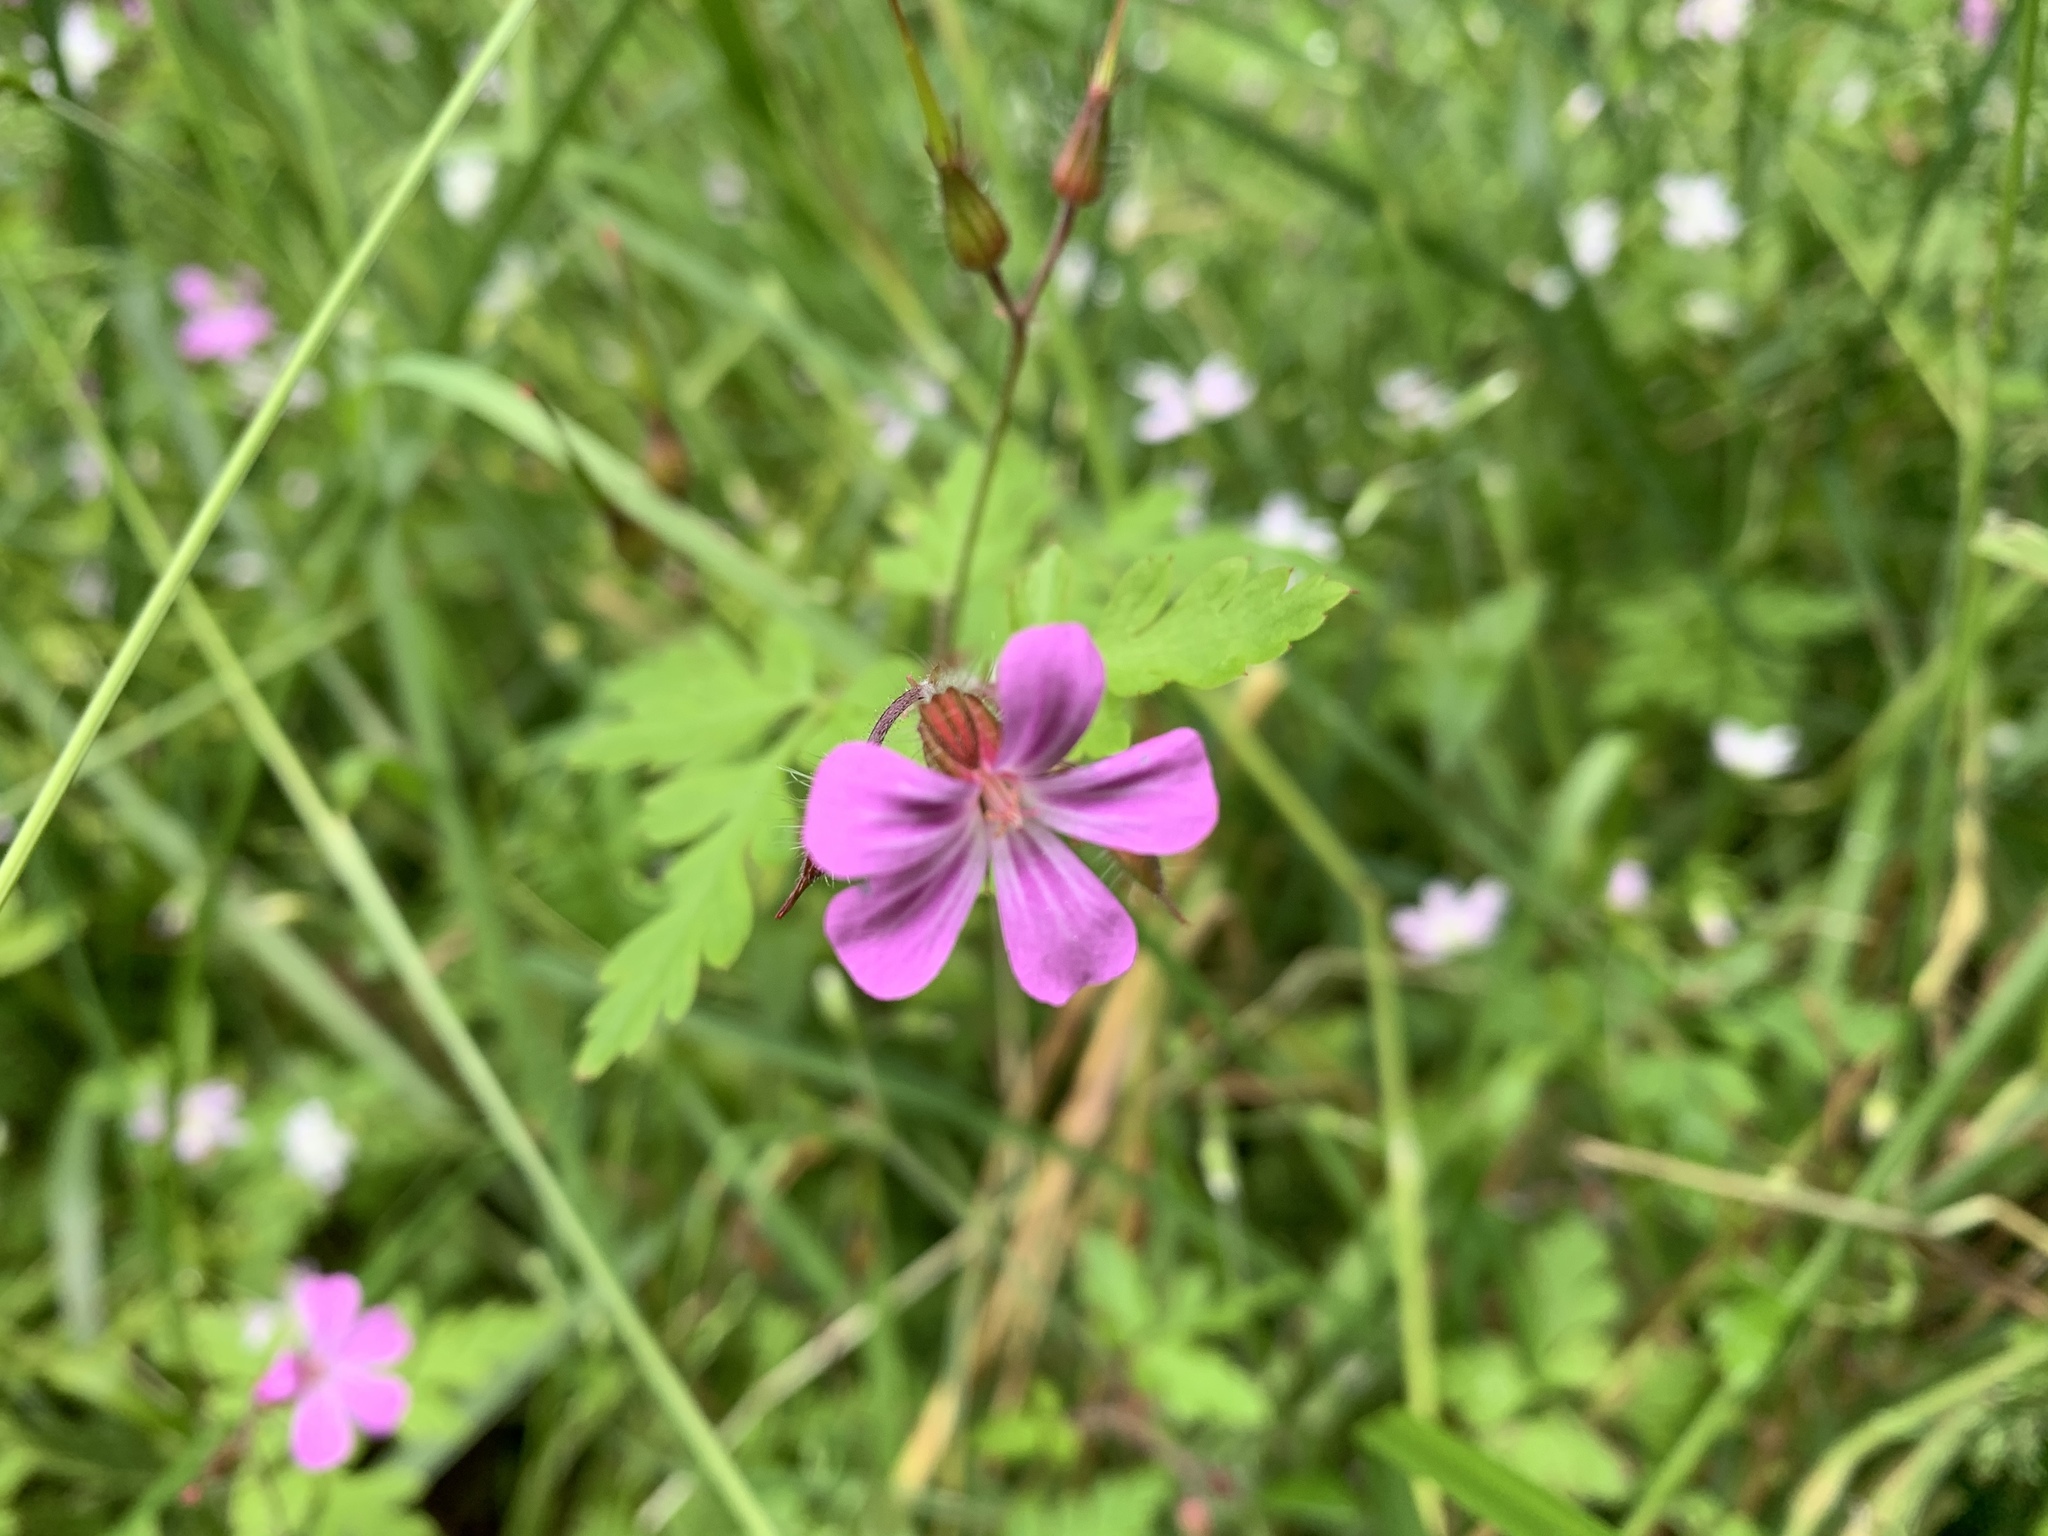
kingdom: Plantae
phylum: Tracheophyta
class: Magnoliopsida
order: Geraniales
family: Geraniaceae
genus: Geranium
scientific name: Geranium robertianum
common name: Herb-robert
